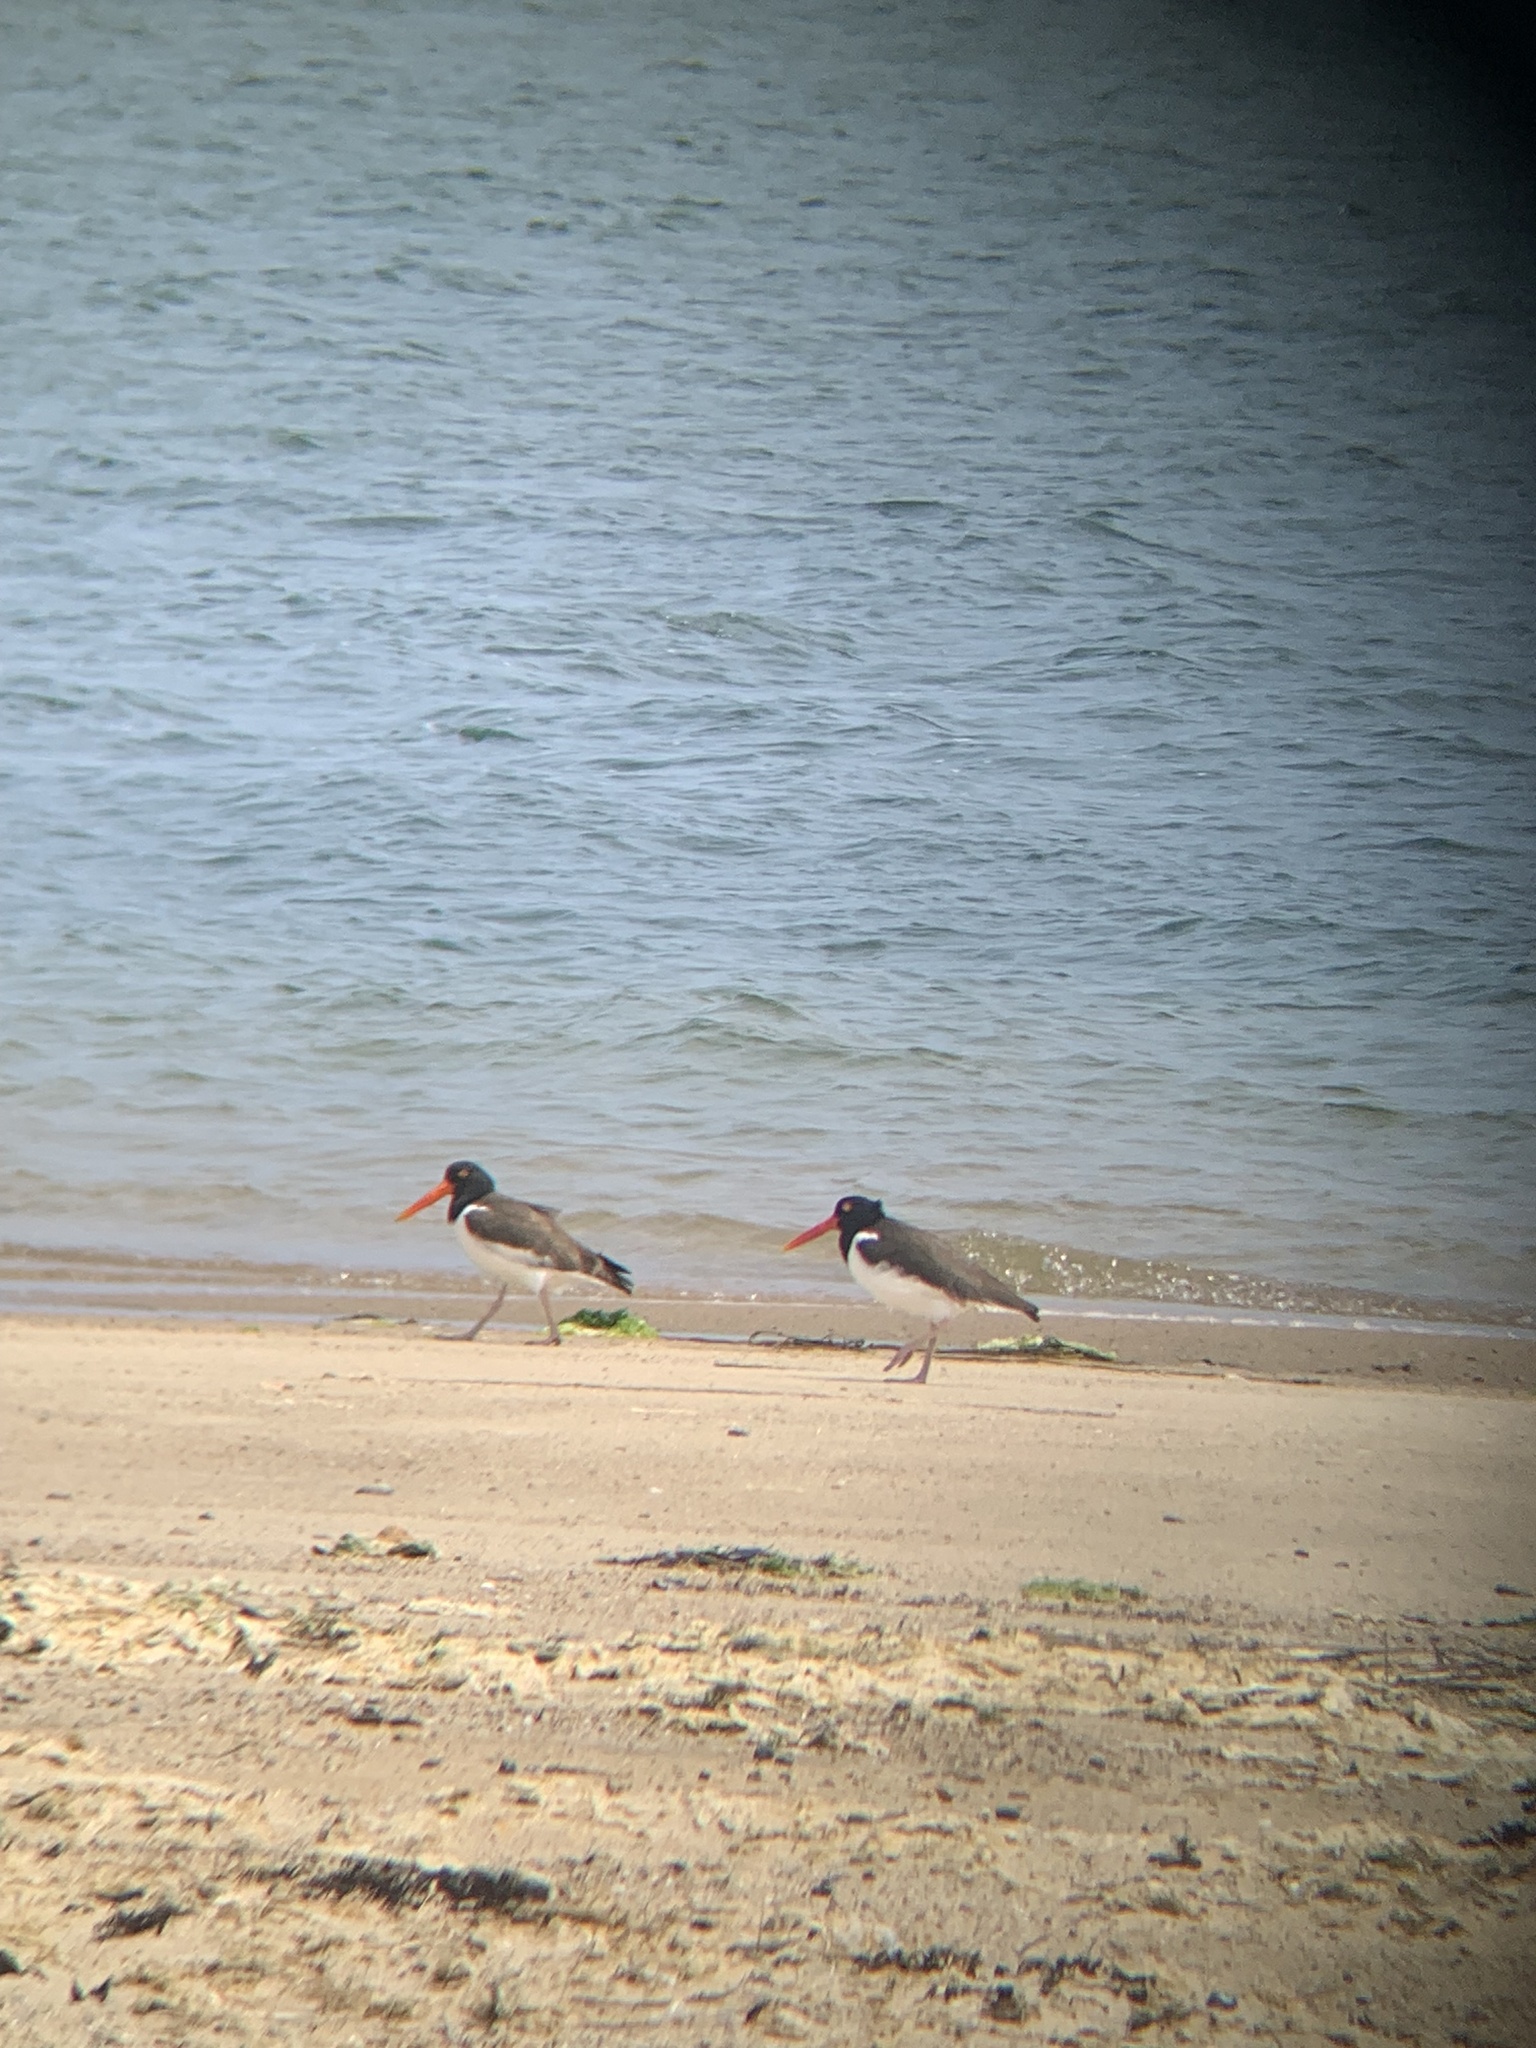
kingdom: Animalia
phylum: Chordata
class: Aves
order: Charadriiformes
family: Haematopodidae
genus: Haematopus
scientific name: Haematopus palliatus
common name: American oystercatcher
